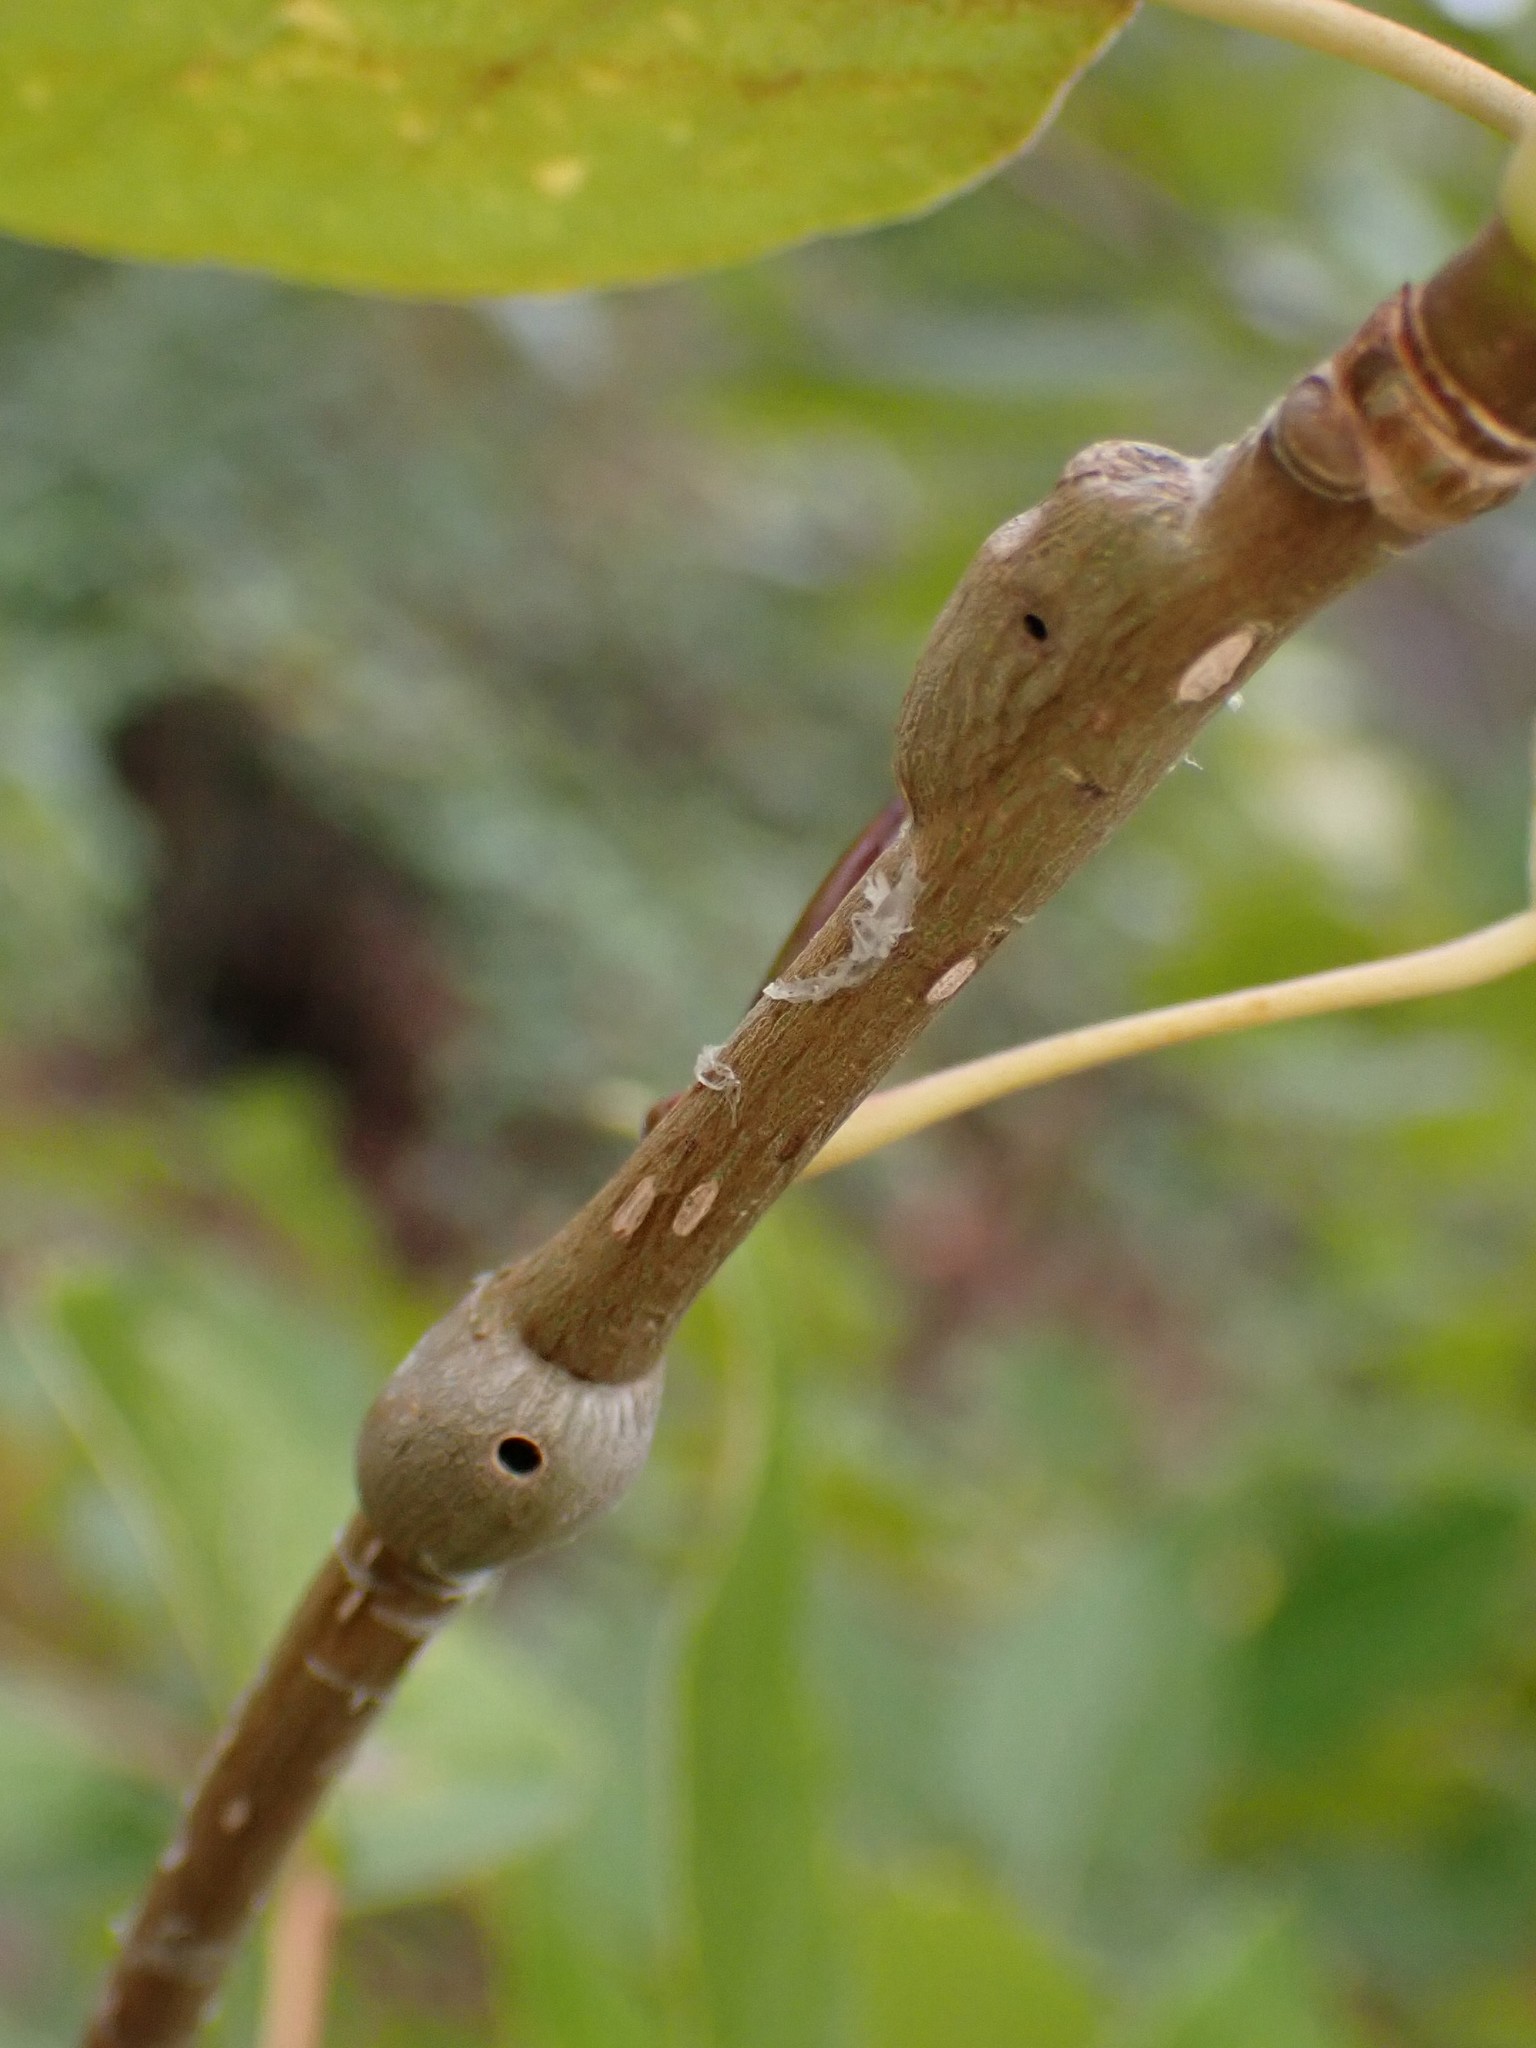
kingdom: Animalia
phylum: Arthropoda
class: Insecta
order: Diptera
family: Agromyzidae
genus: Euhexomyza
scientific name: Euhexomyza schineri
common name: Poplar twiggall fly
